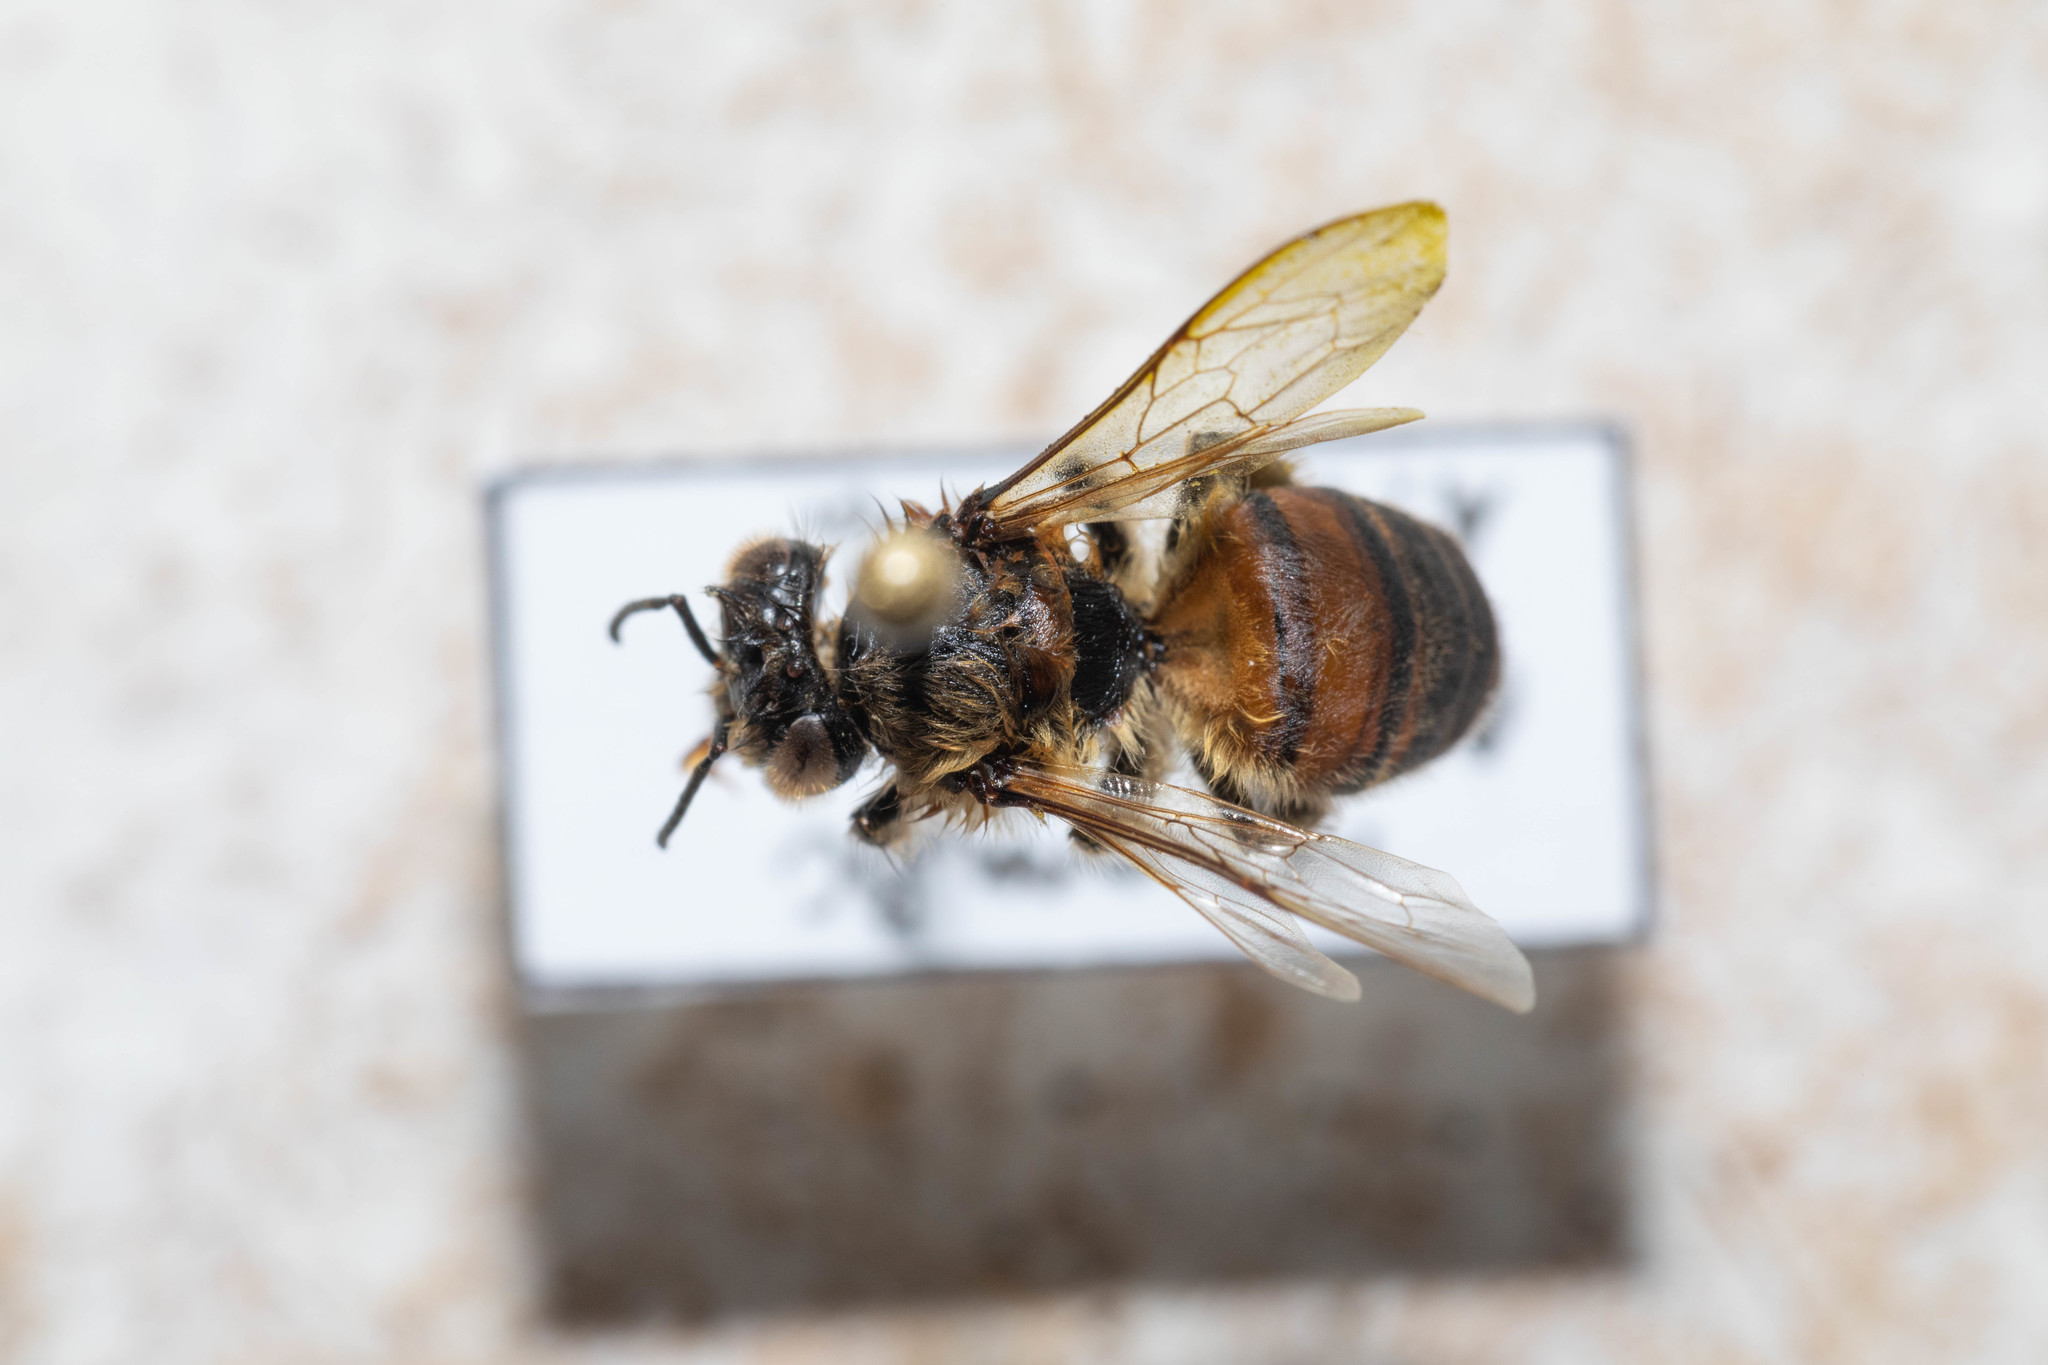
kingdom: Animalia
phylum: Arthropoda
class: Insecta
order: Hymenoptera
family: Apidae
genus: Apis
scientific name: Apis mellifera
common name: Honey bee
